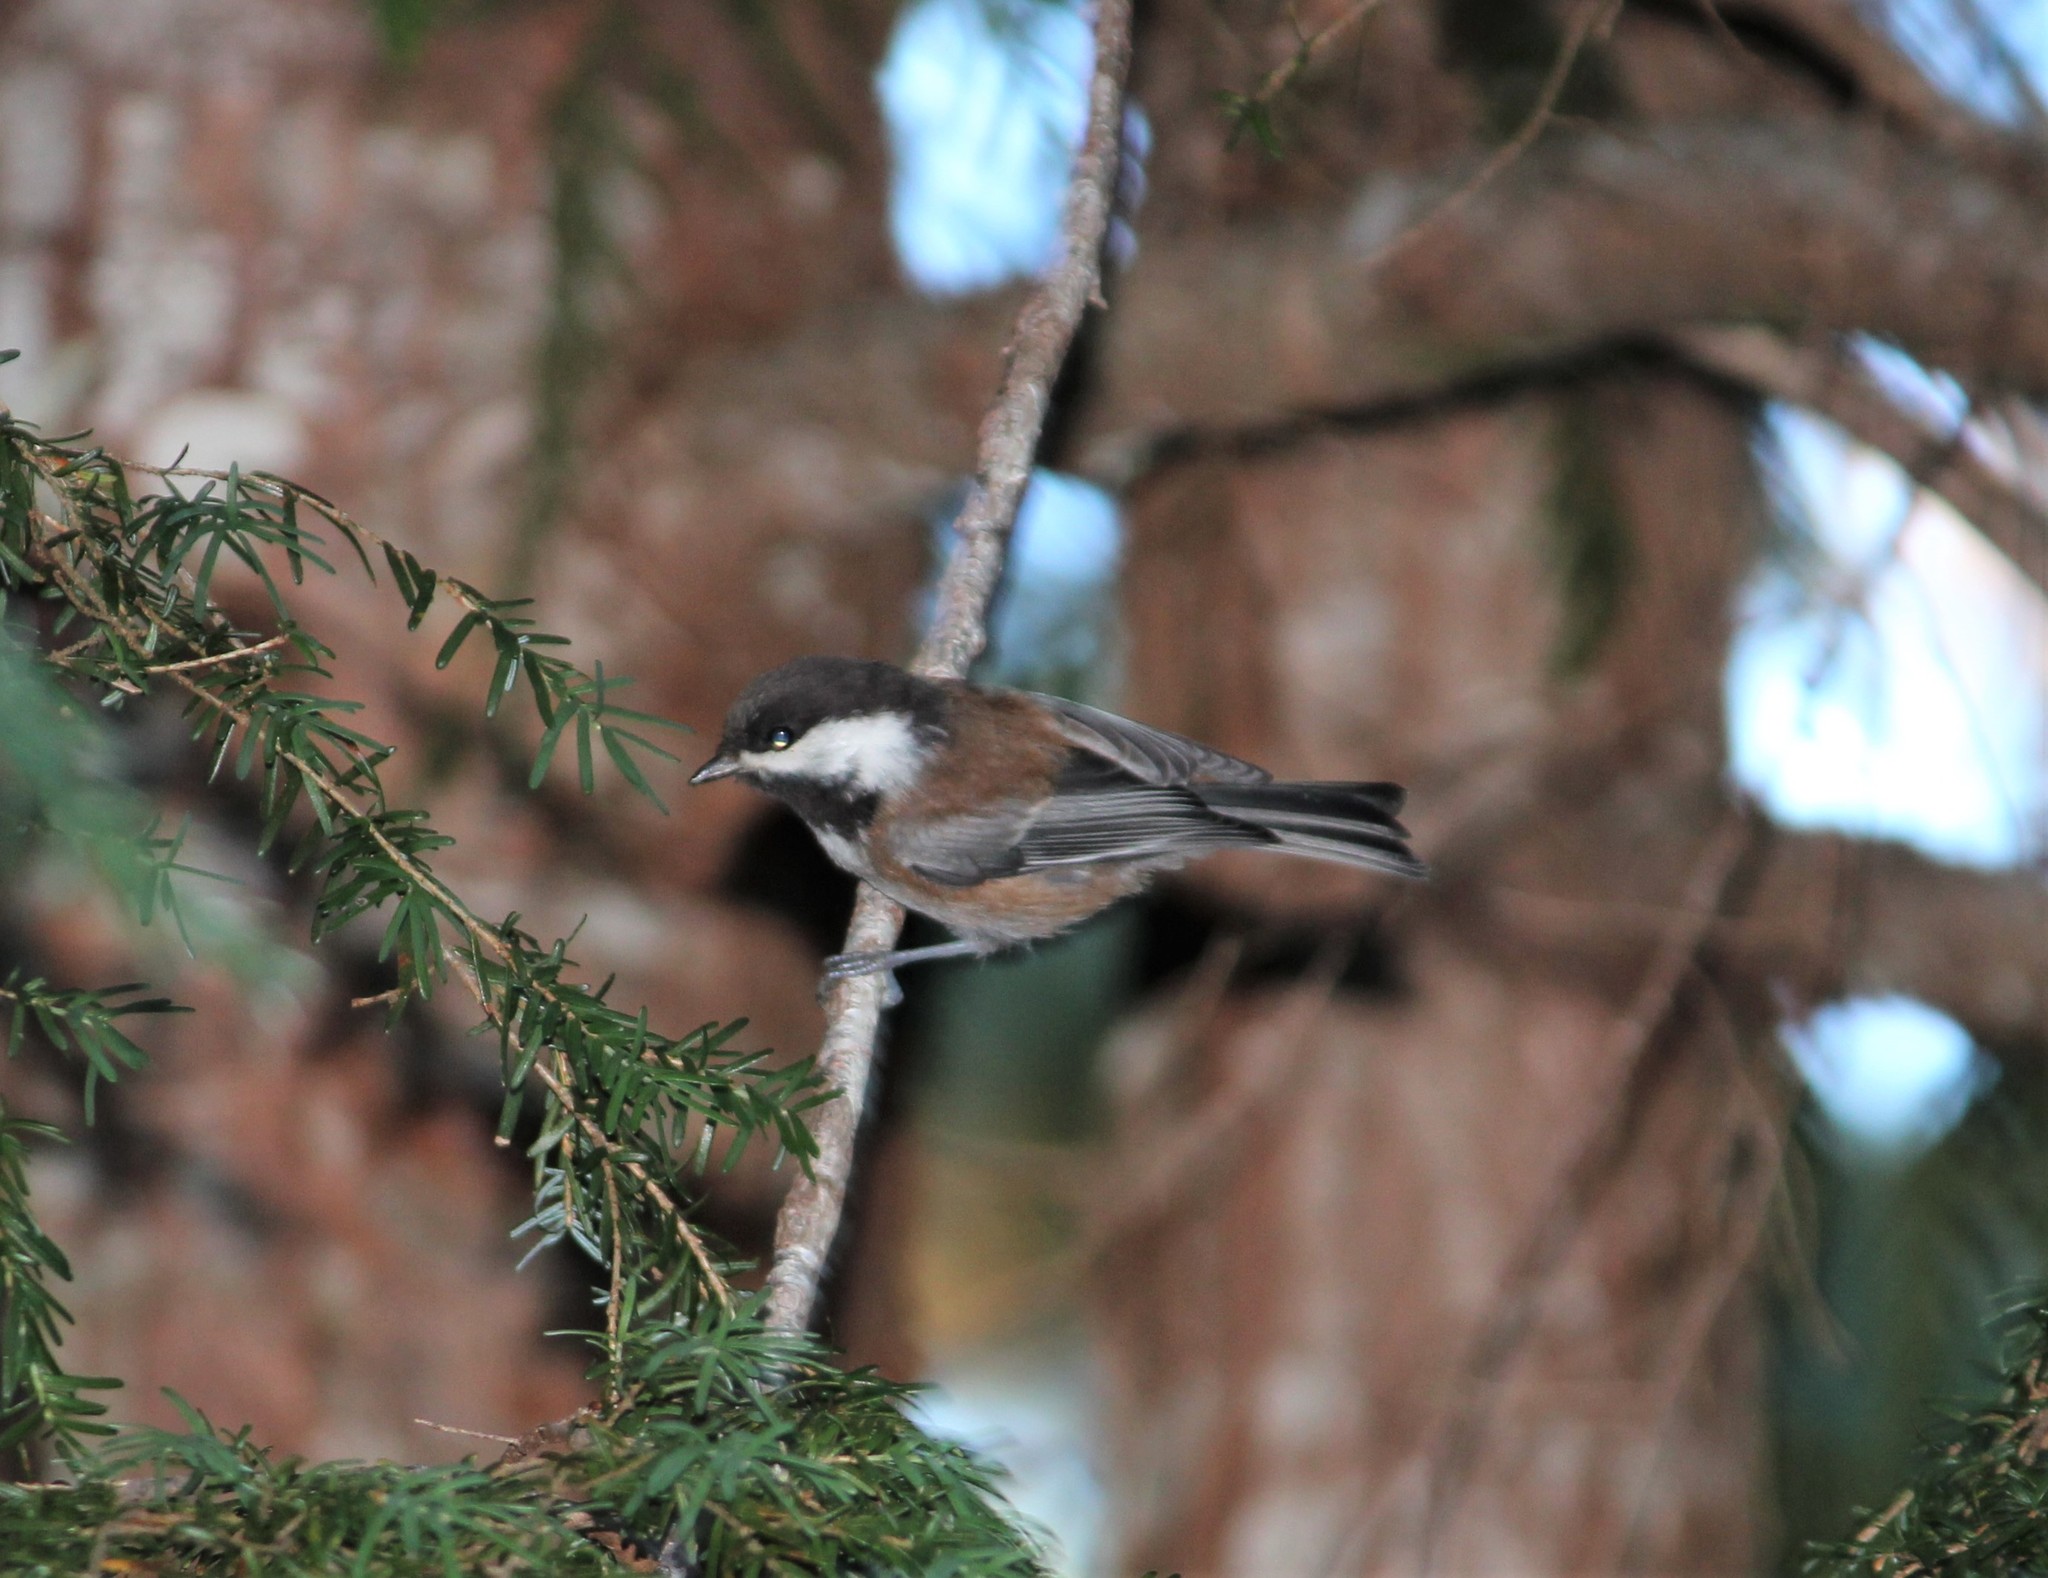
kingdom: Animalia
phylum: Chordata
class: Aves
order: Passeriformes
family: Paridae
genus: Poecile
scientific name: Poecile rufescens
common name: Chestnut-backed chickadee
